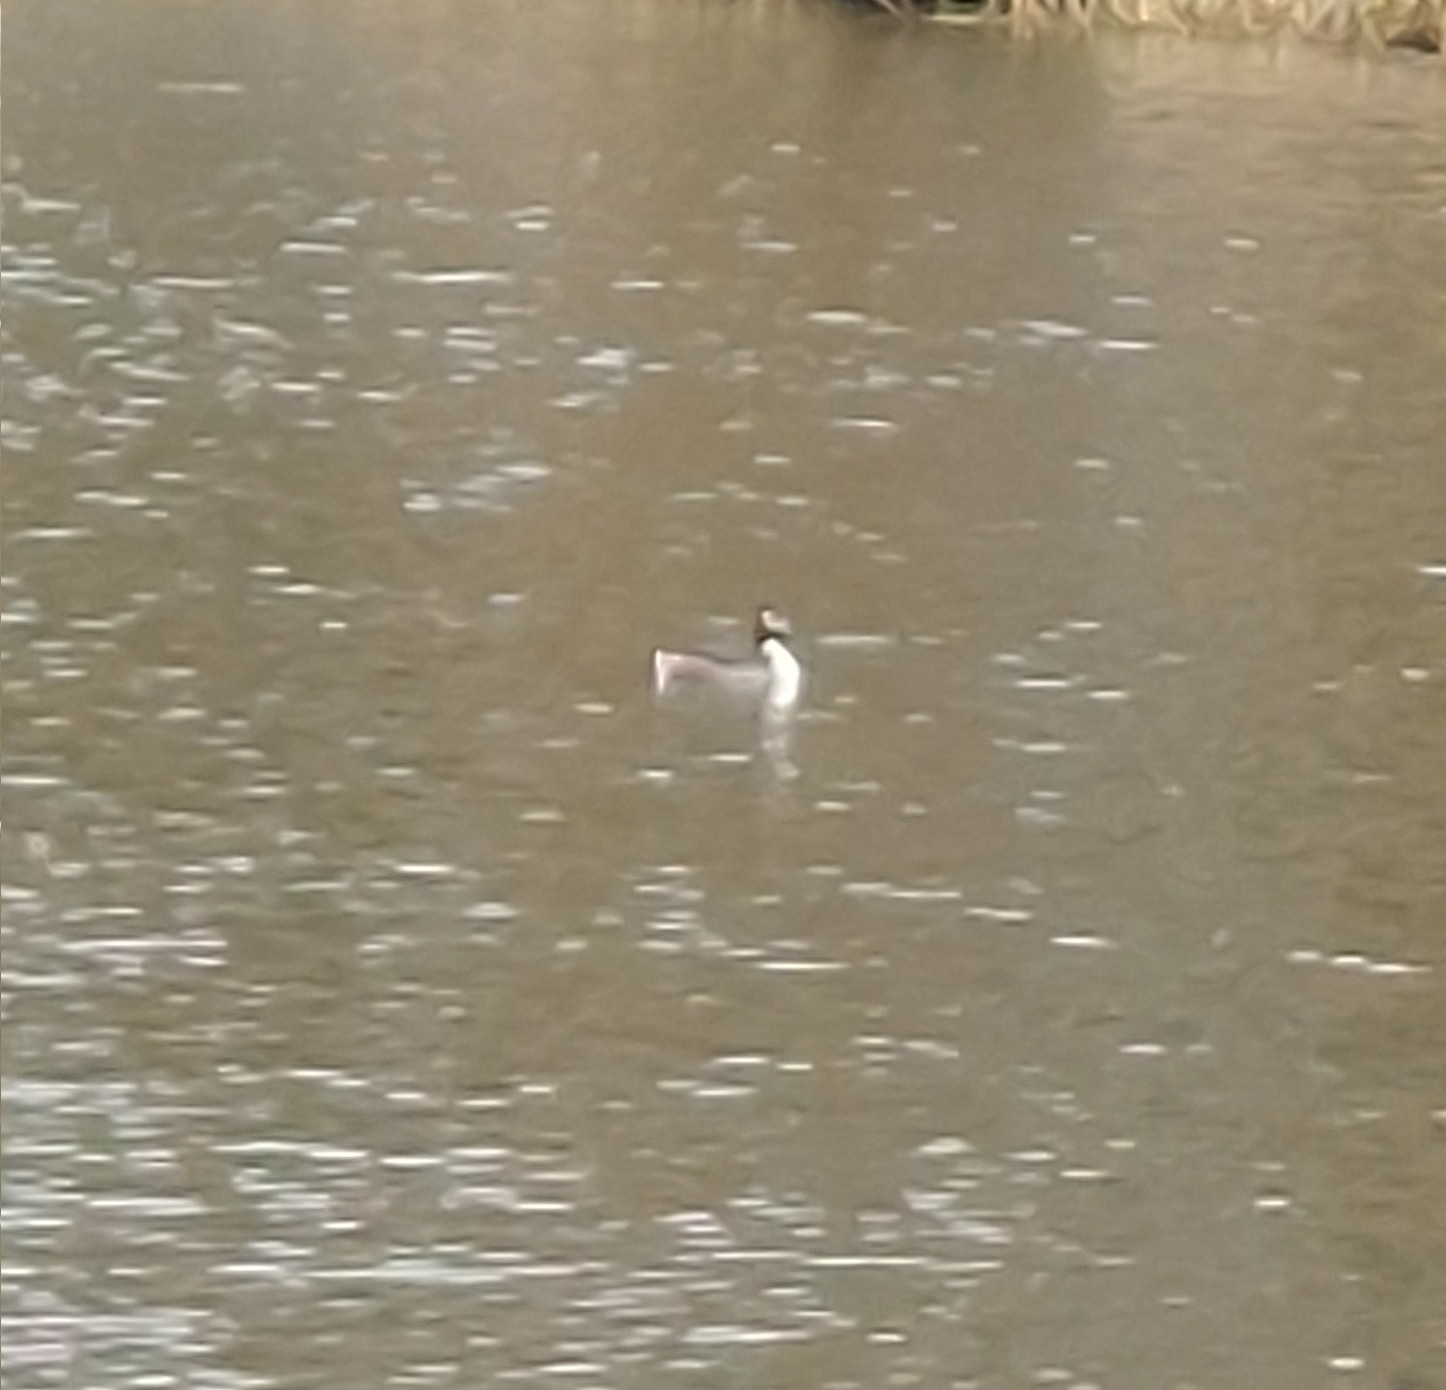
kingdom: Animalia
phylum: Chordata
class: Aves
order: Podicipediformes
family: Podicipedidae
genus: Podiceps
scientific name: Podiceps cristatus
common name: Great crested grebe
